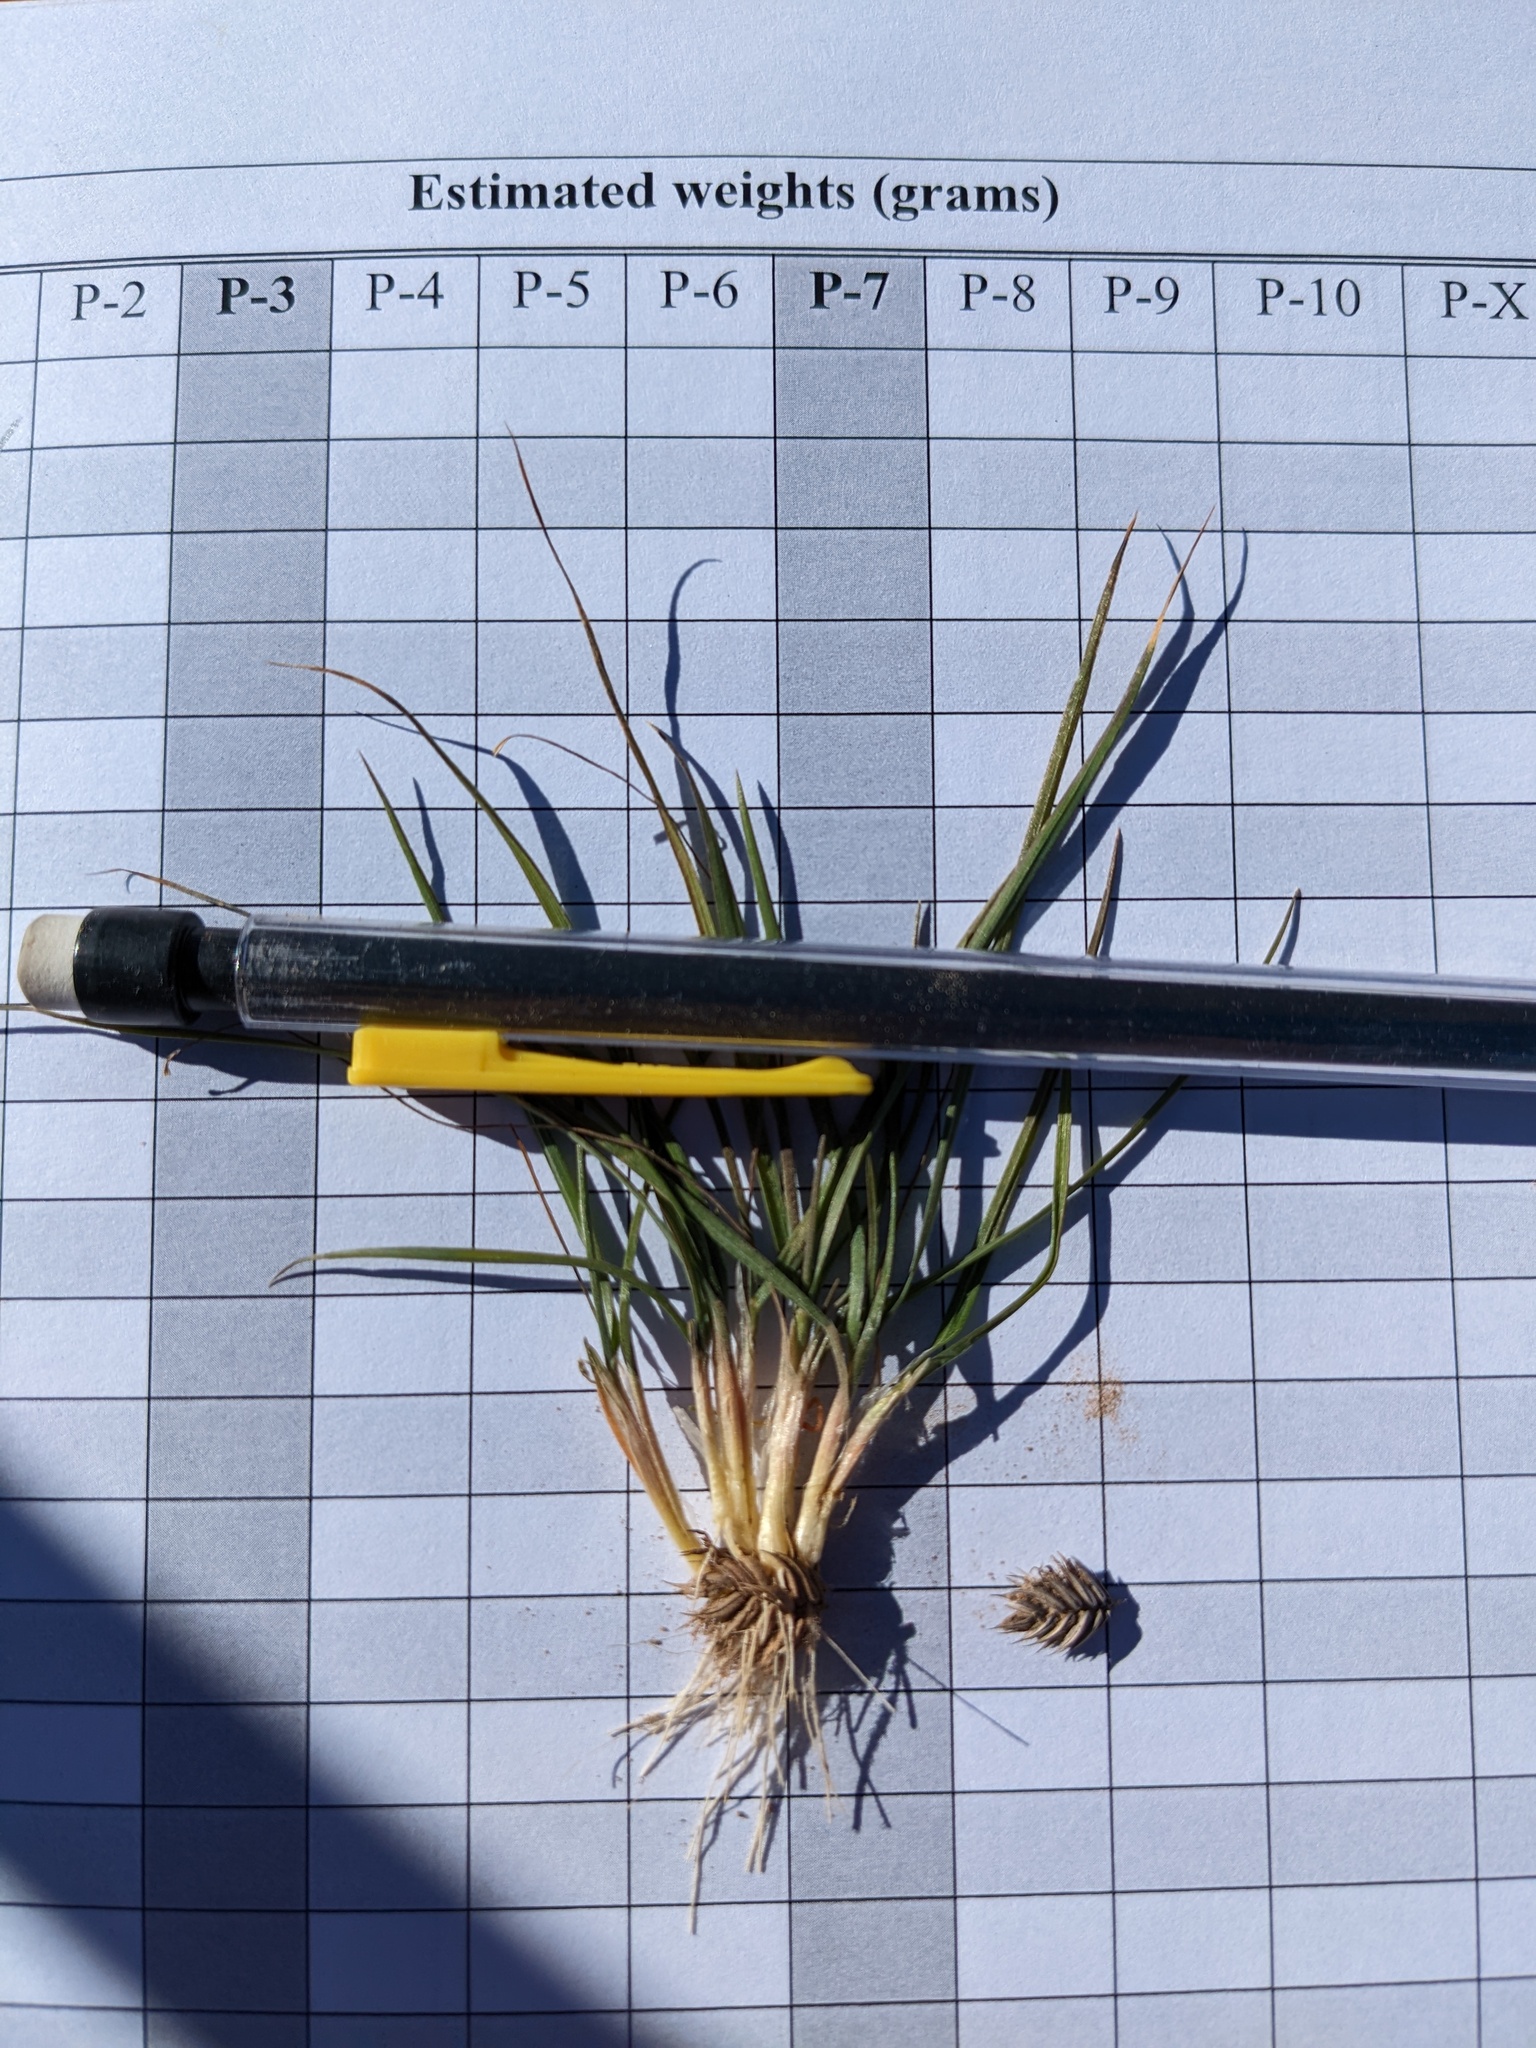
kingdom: Plantae
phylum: Tracheophyta
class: Liliopsida
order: Poales
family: Poaceae
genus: Eremopyrum
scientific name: Eremopyrum triticeum
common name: Annual wheatgrass
